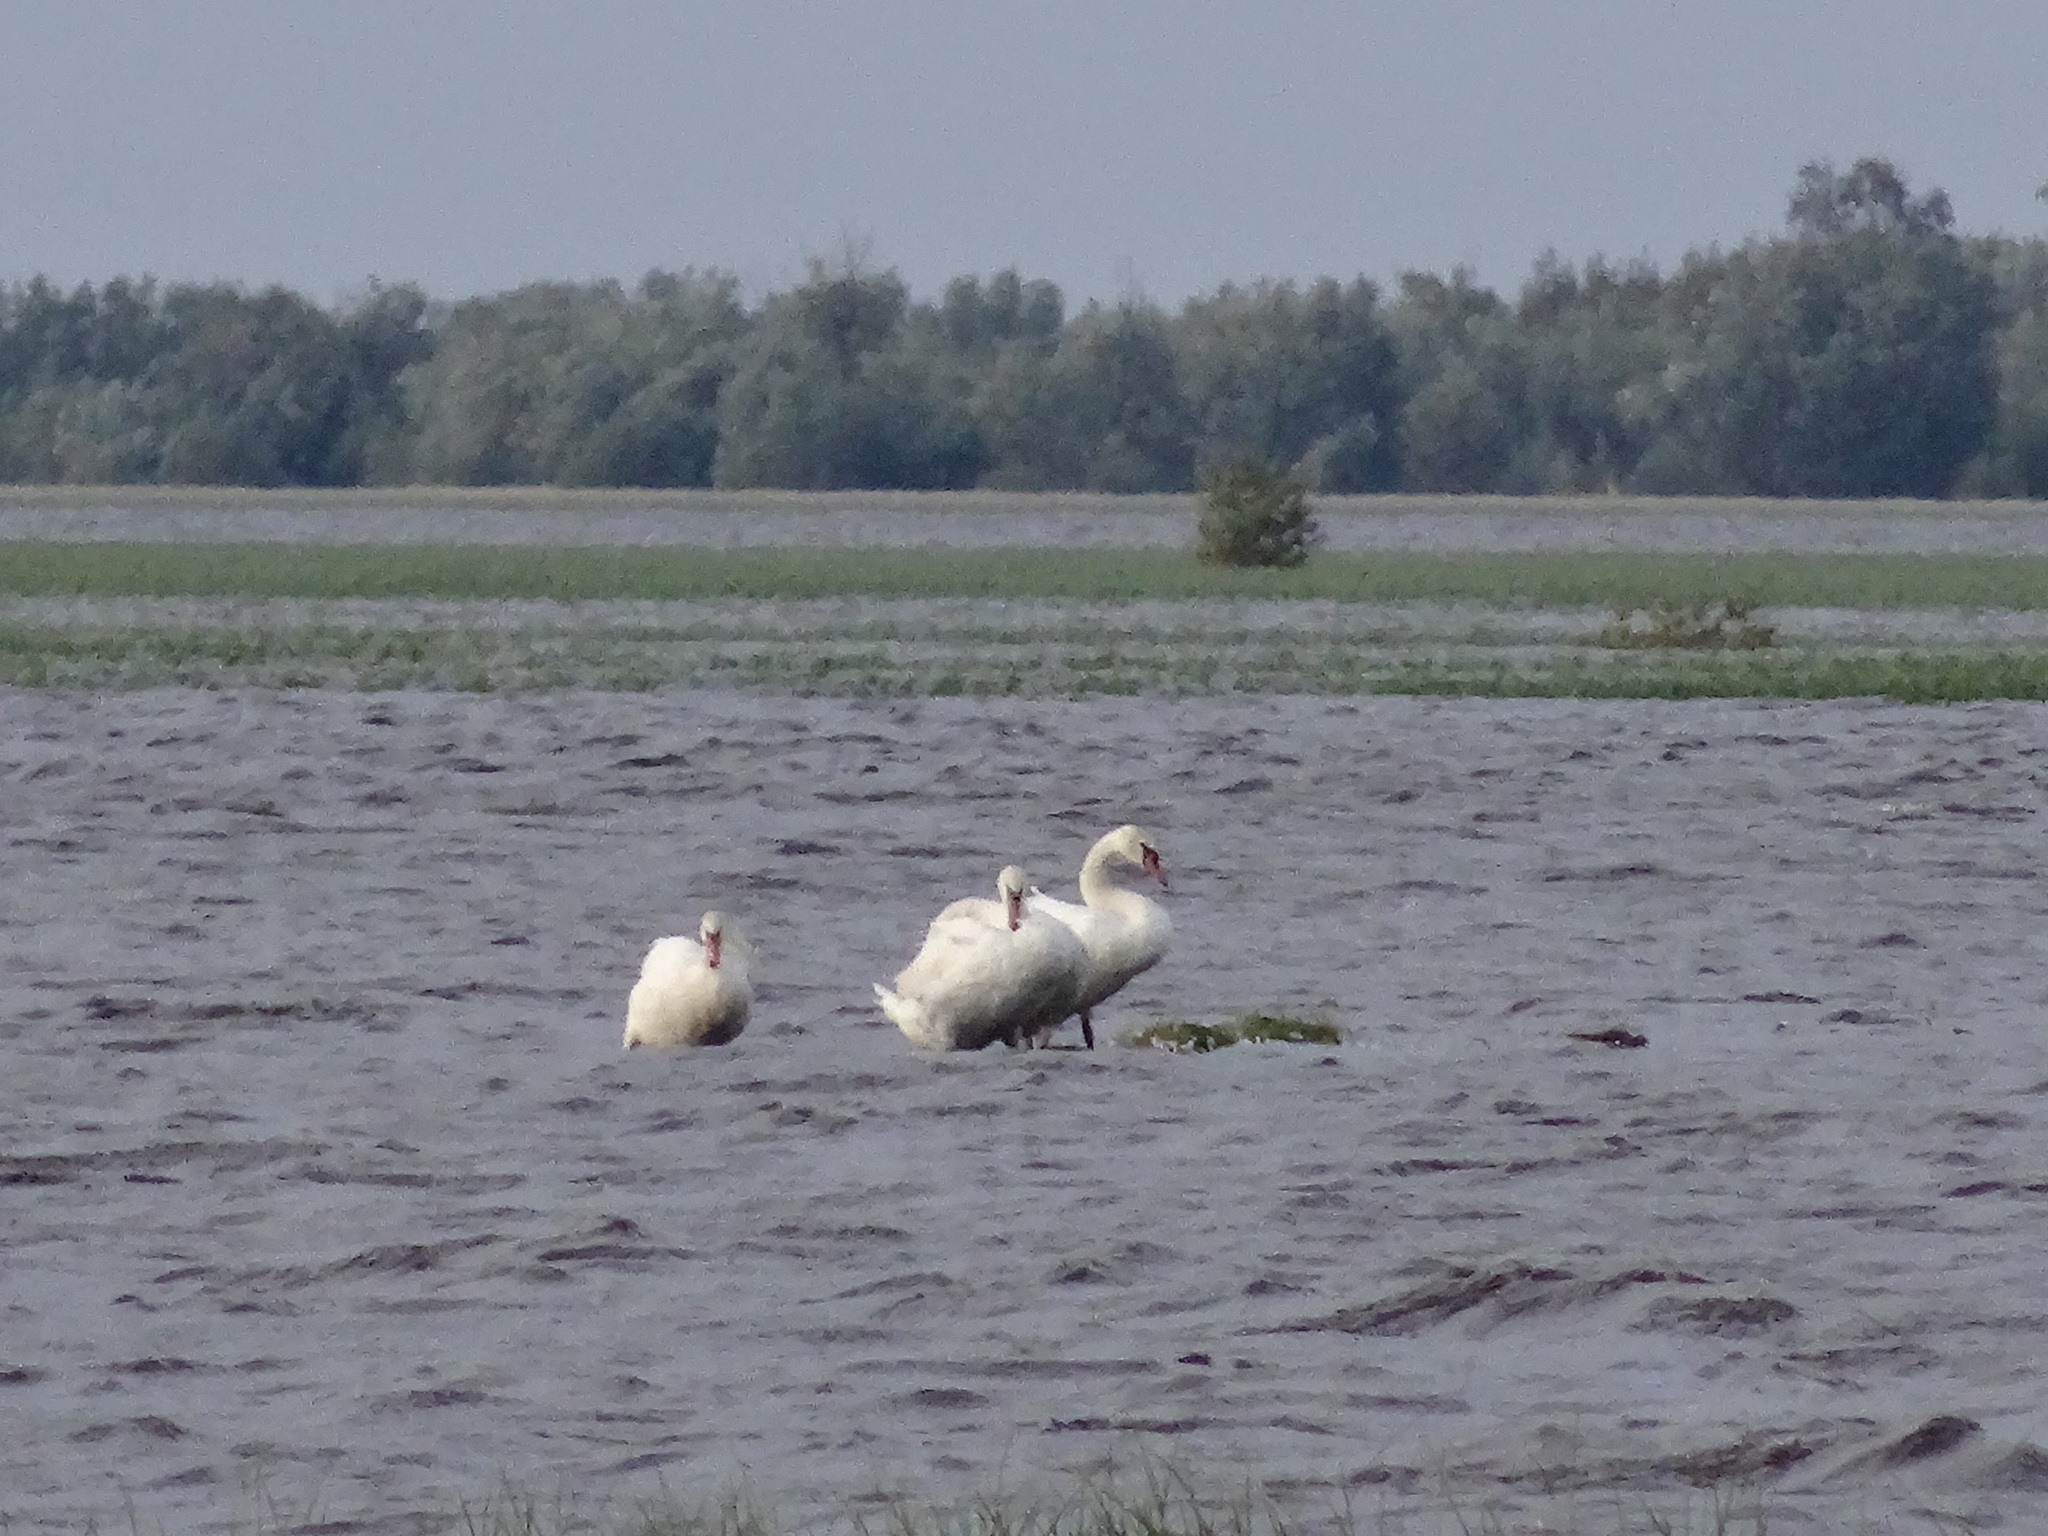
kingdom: Animalia
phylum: Chordata
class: Aves
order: Anseriformes
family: Anatidae
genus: Cygnus
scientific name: Cygnus olor
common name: Mute swan
